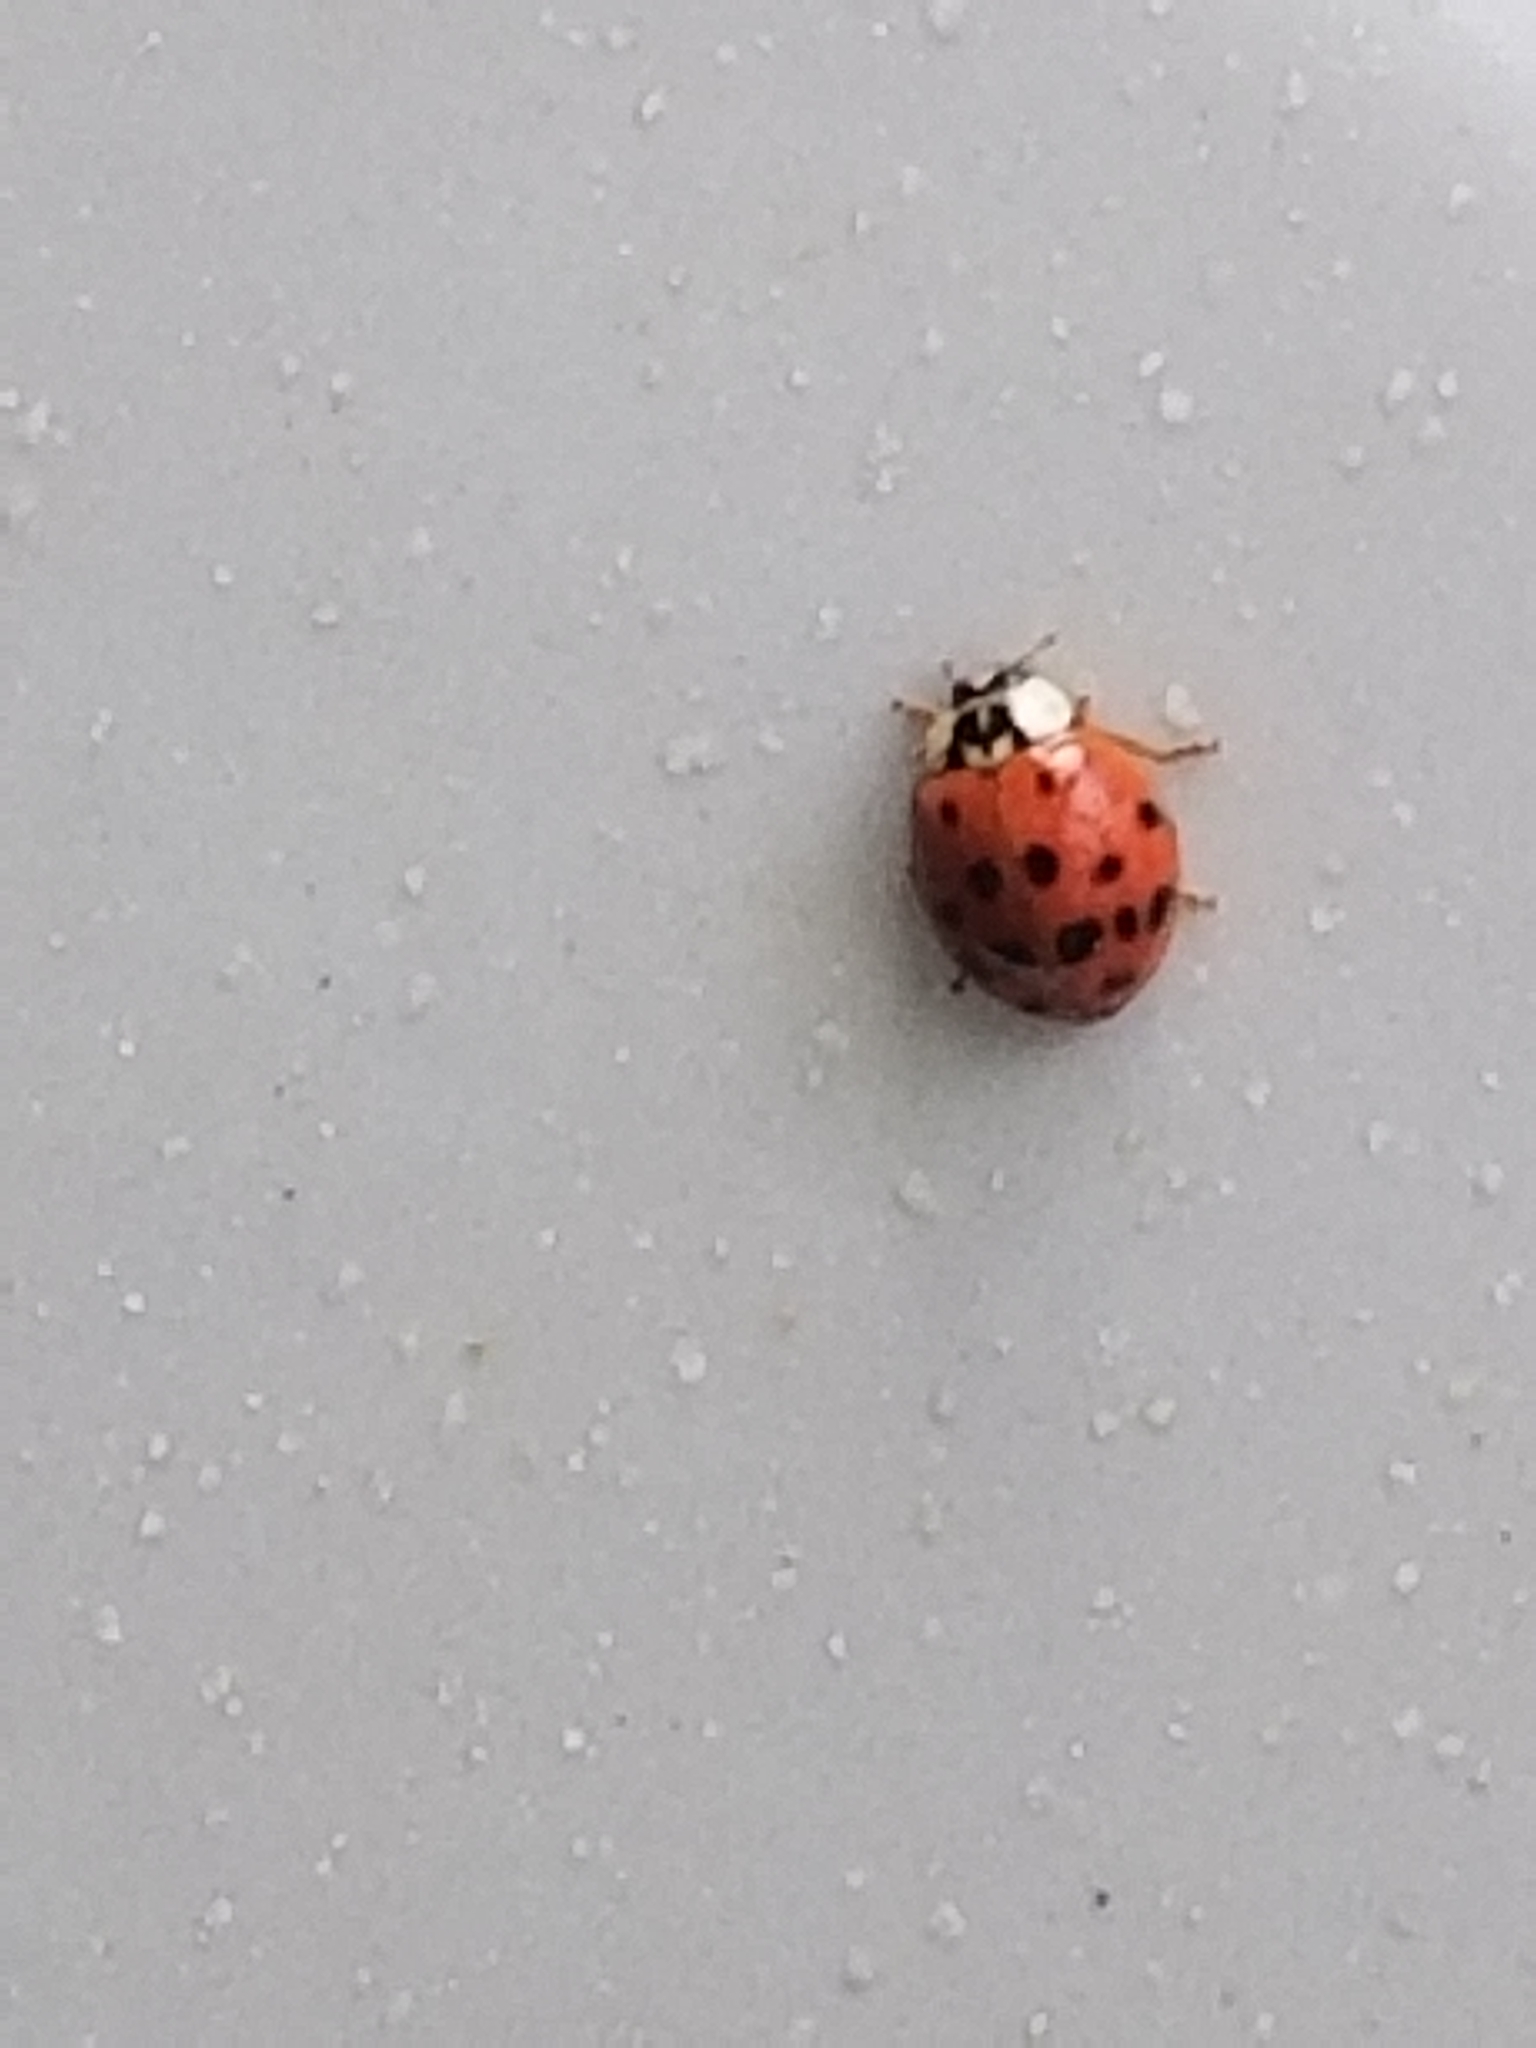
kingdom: Animalia
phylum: Arthropoda
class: Insecta
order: Coleoptera
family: Coccinellidae
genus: Harmonia
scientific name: Harmonia axyridis
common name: Harlequin ladybird
